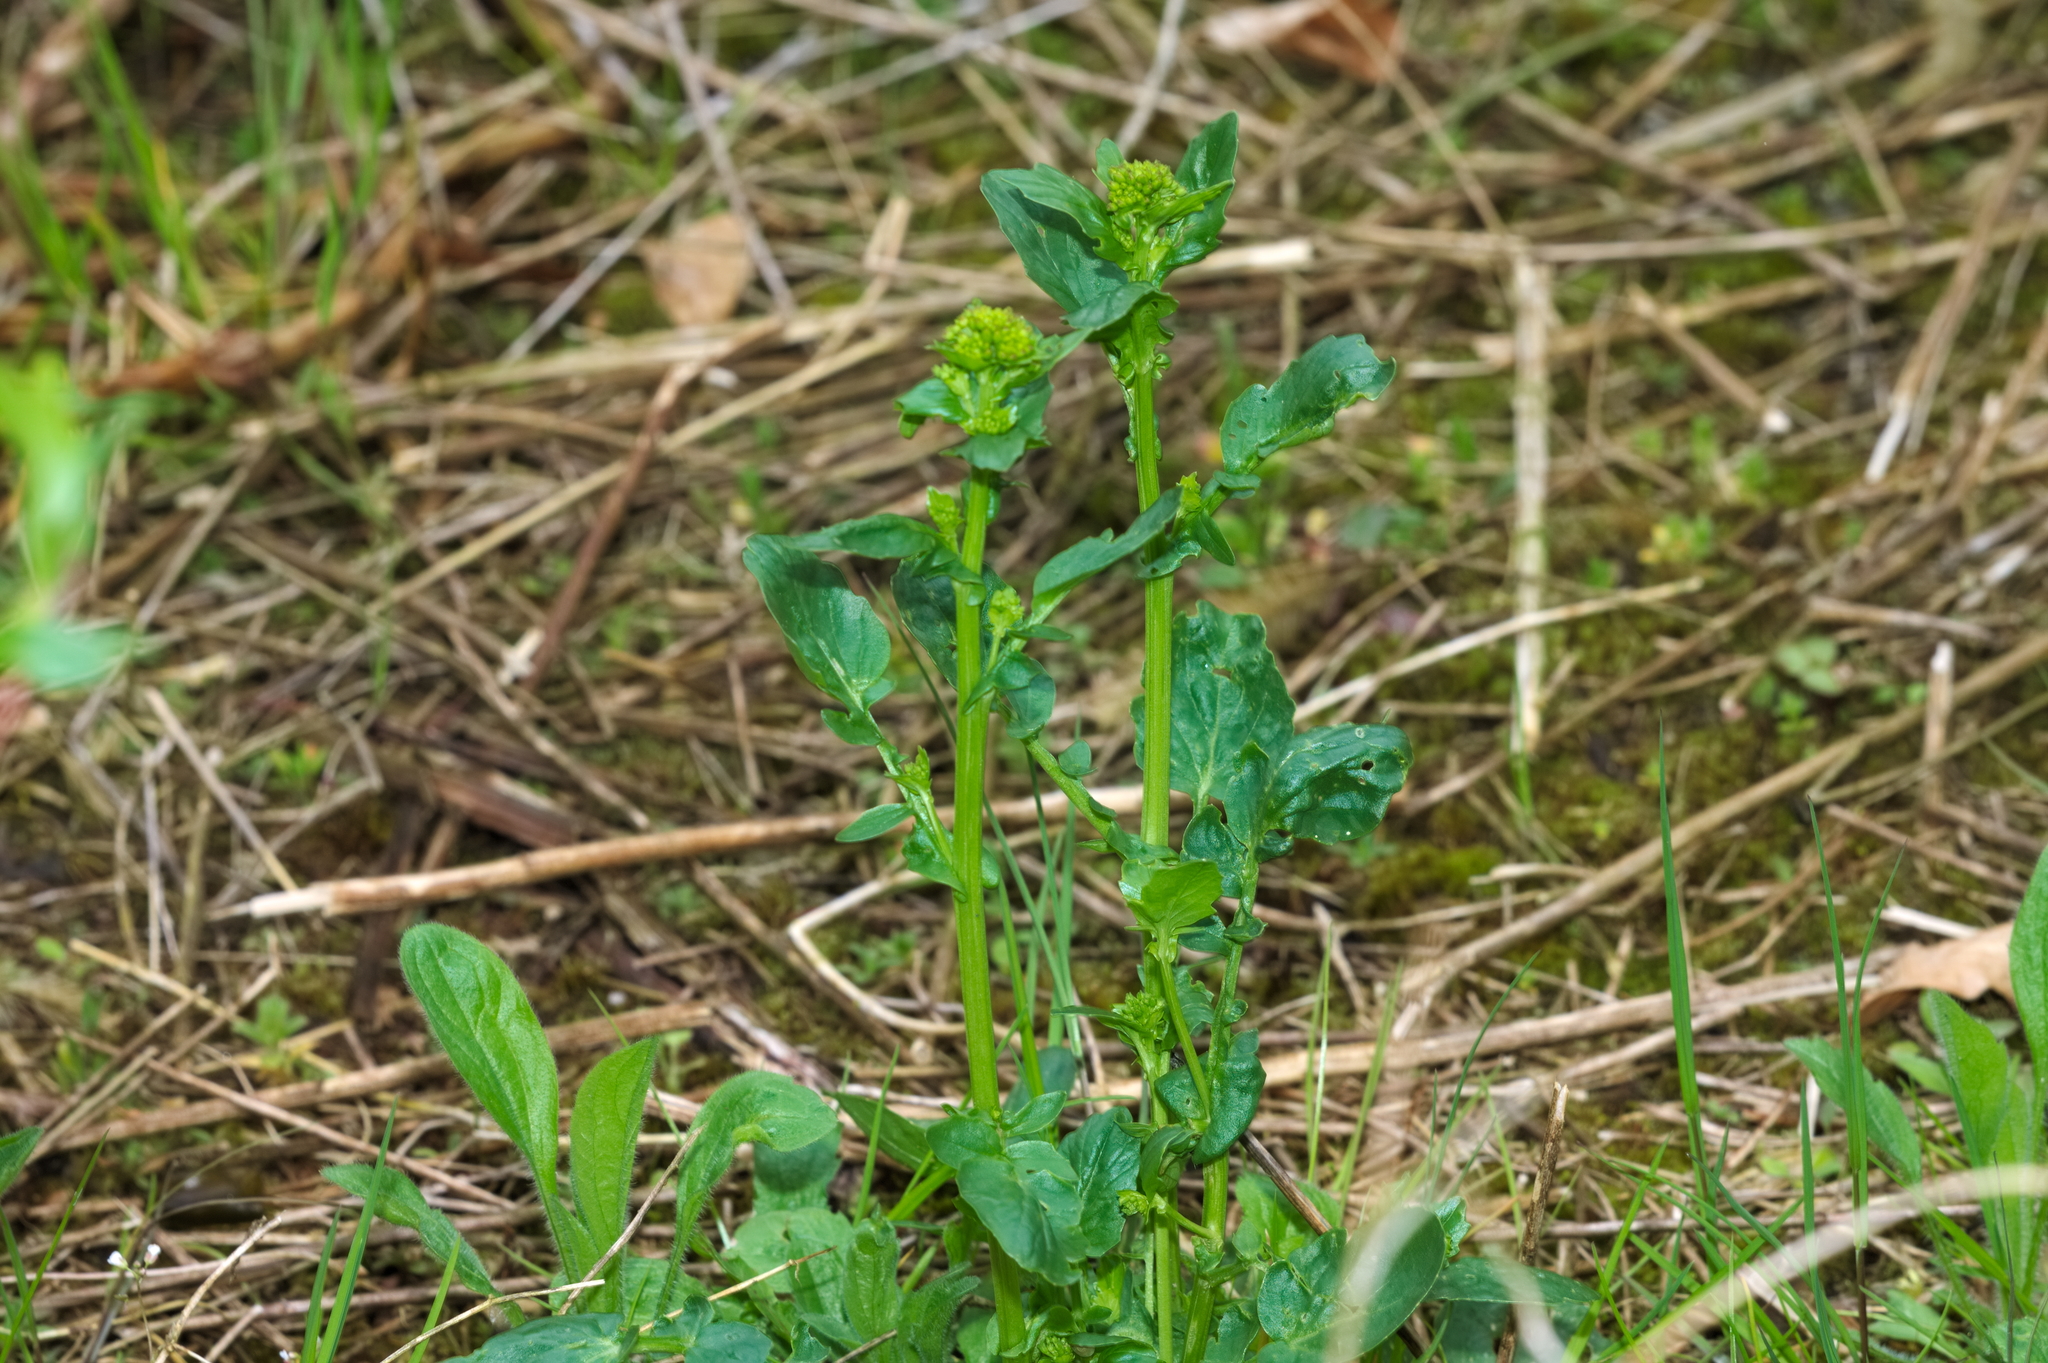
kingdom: Plantae
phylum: Tracheophyta
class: Magnoliopsida
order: Brassicales
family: Brassicaceae
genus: Barbarea
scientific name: Barbarea vulgaris
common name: Cressy-greens
